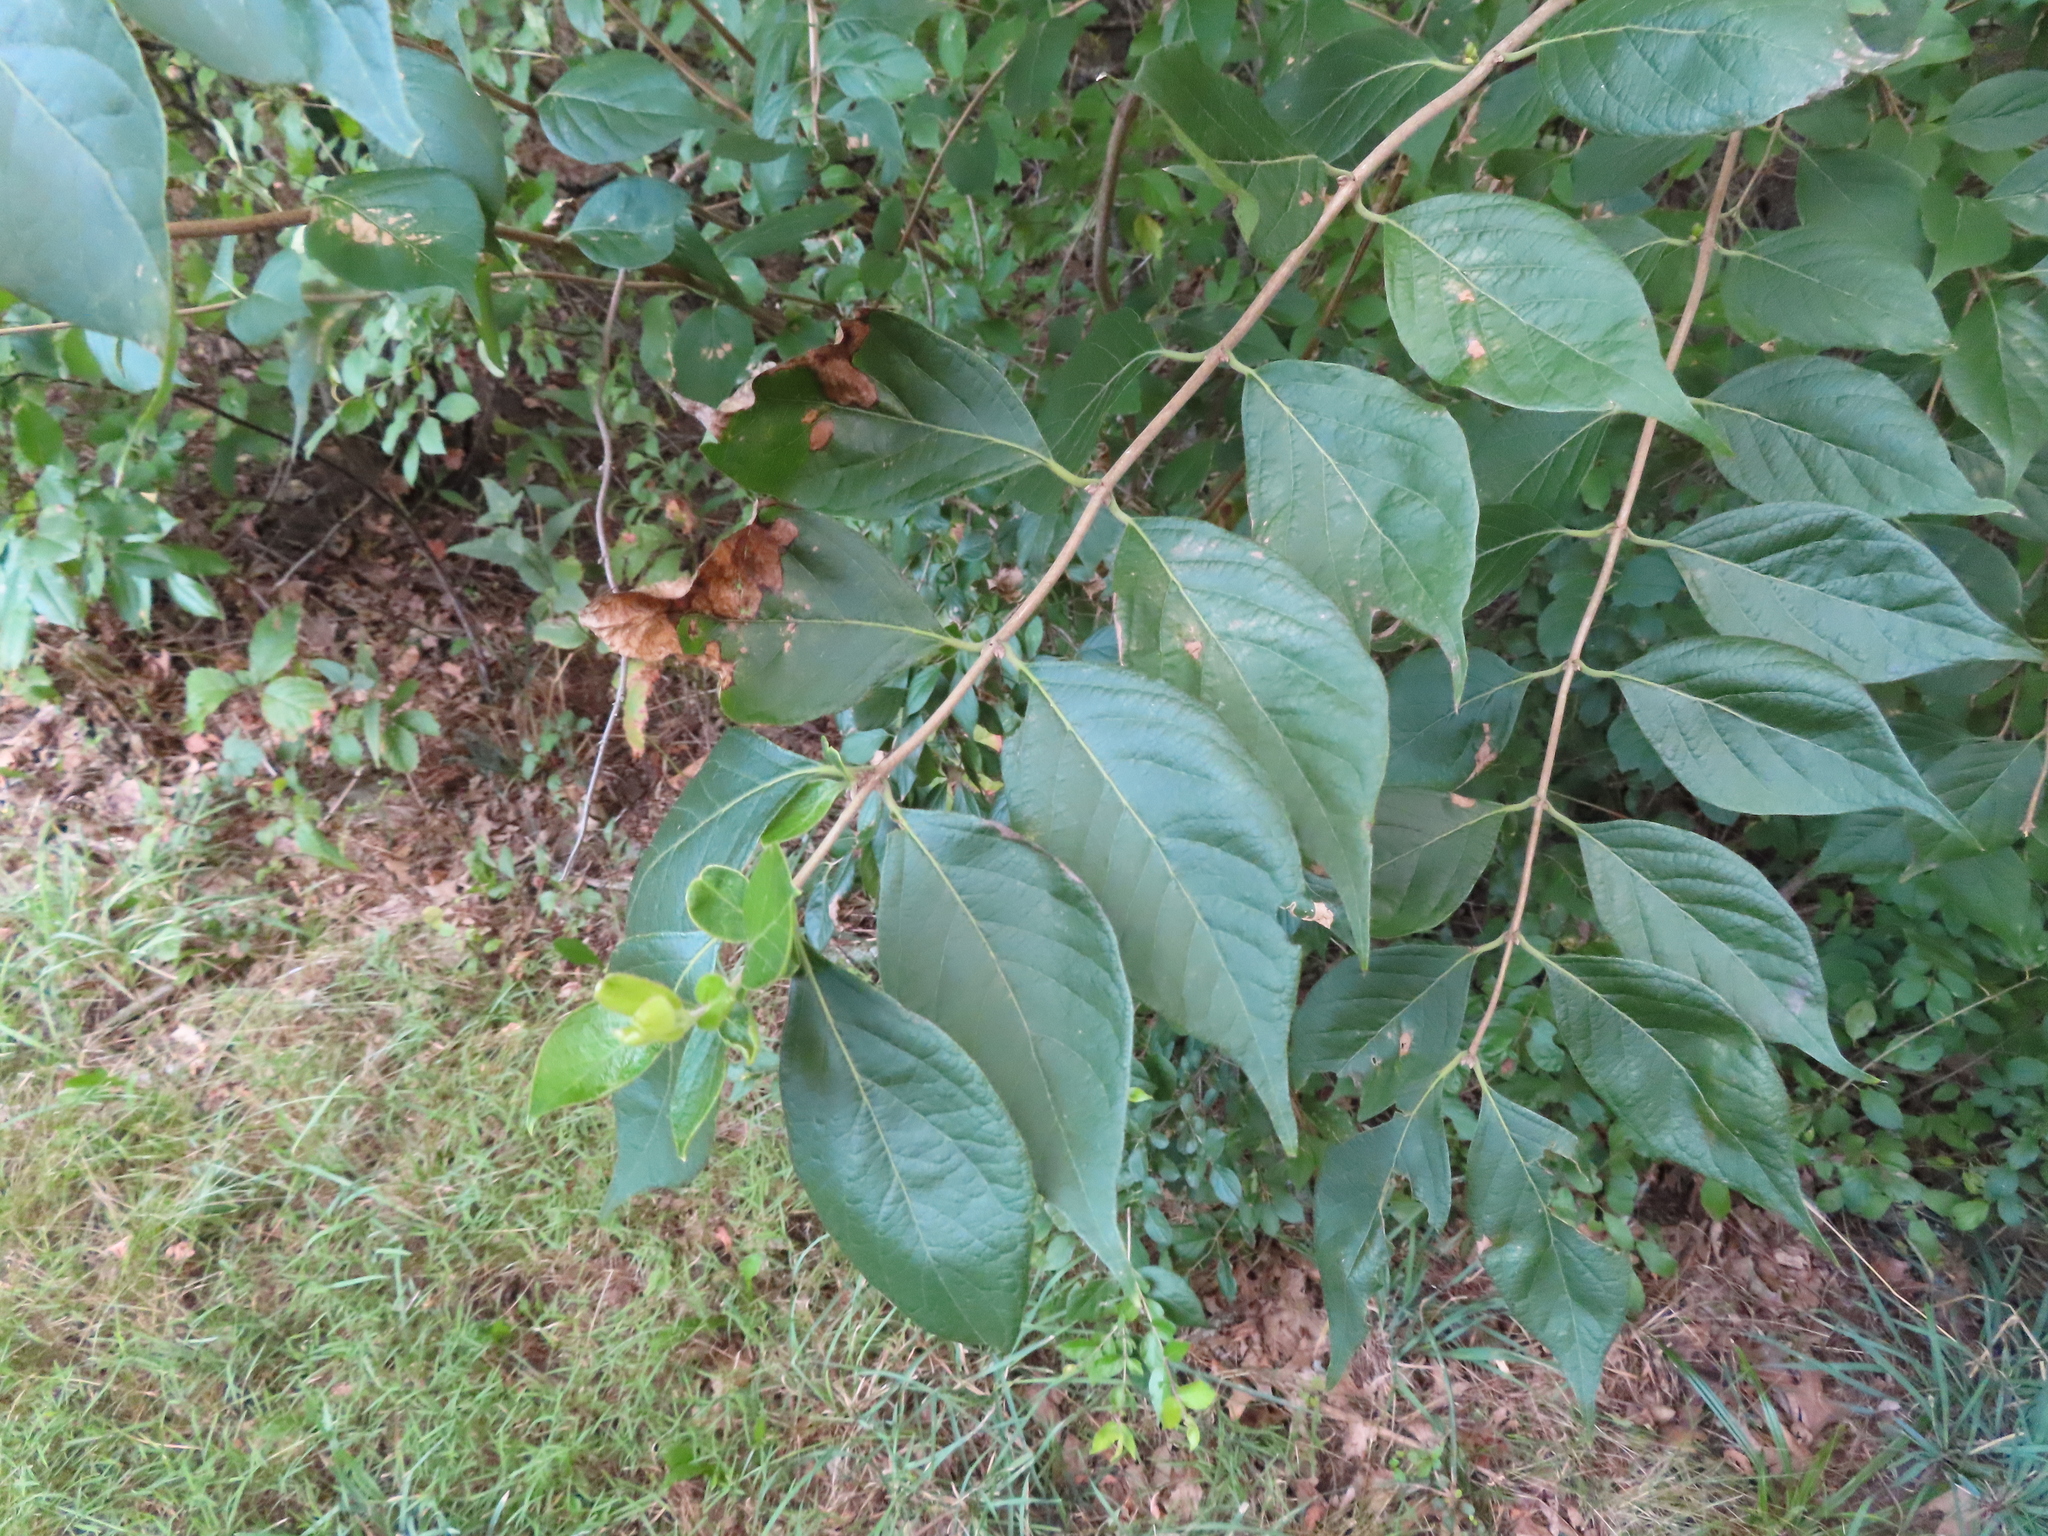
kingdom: Plantae
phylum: Tracheophyta
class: Magnoliopsida
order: Dipsacales
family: Caprifoliaceae
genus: Lonicera
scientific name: Lonicera maackii
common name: Amur honeysuckle
